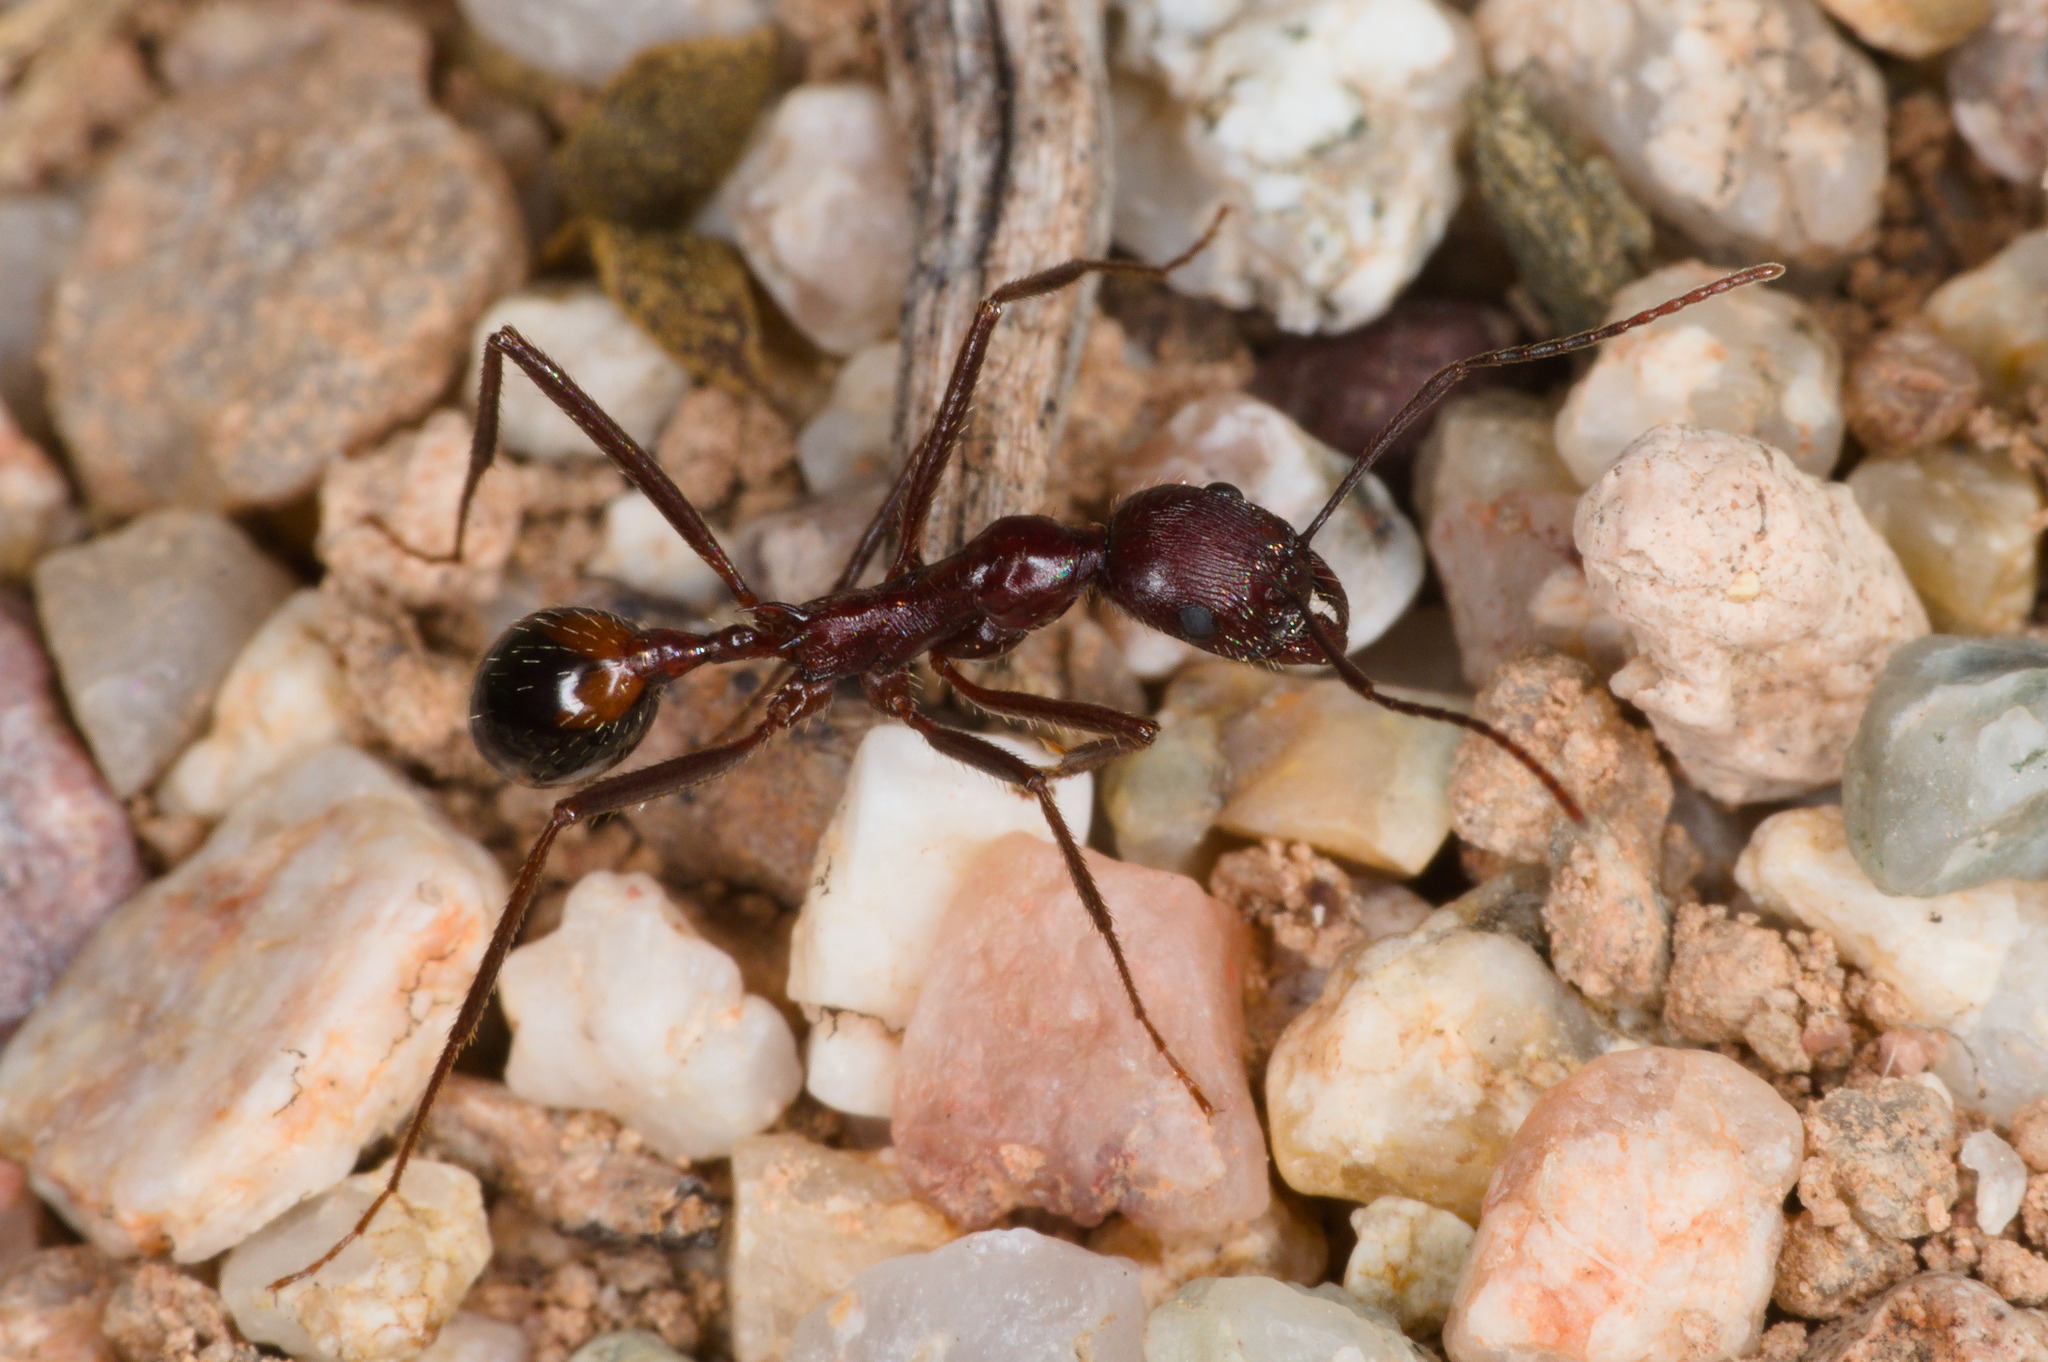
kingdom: Animalia
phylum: Arthropoda
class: Insecta
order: Hymenoptera
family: Formicidae
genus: Novomessor
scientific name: Novomessor cockerelli
